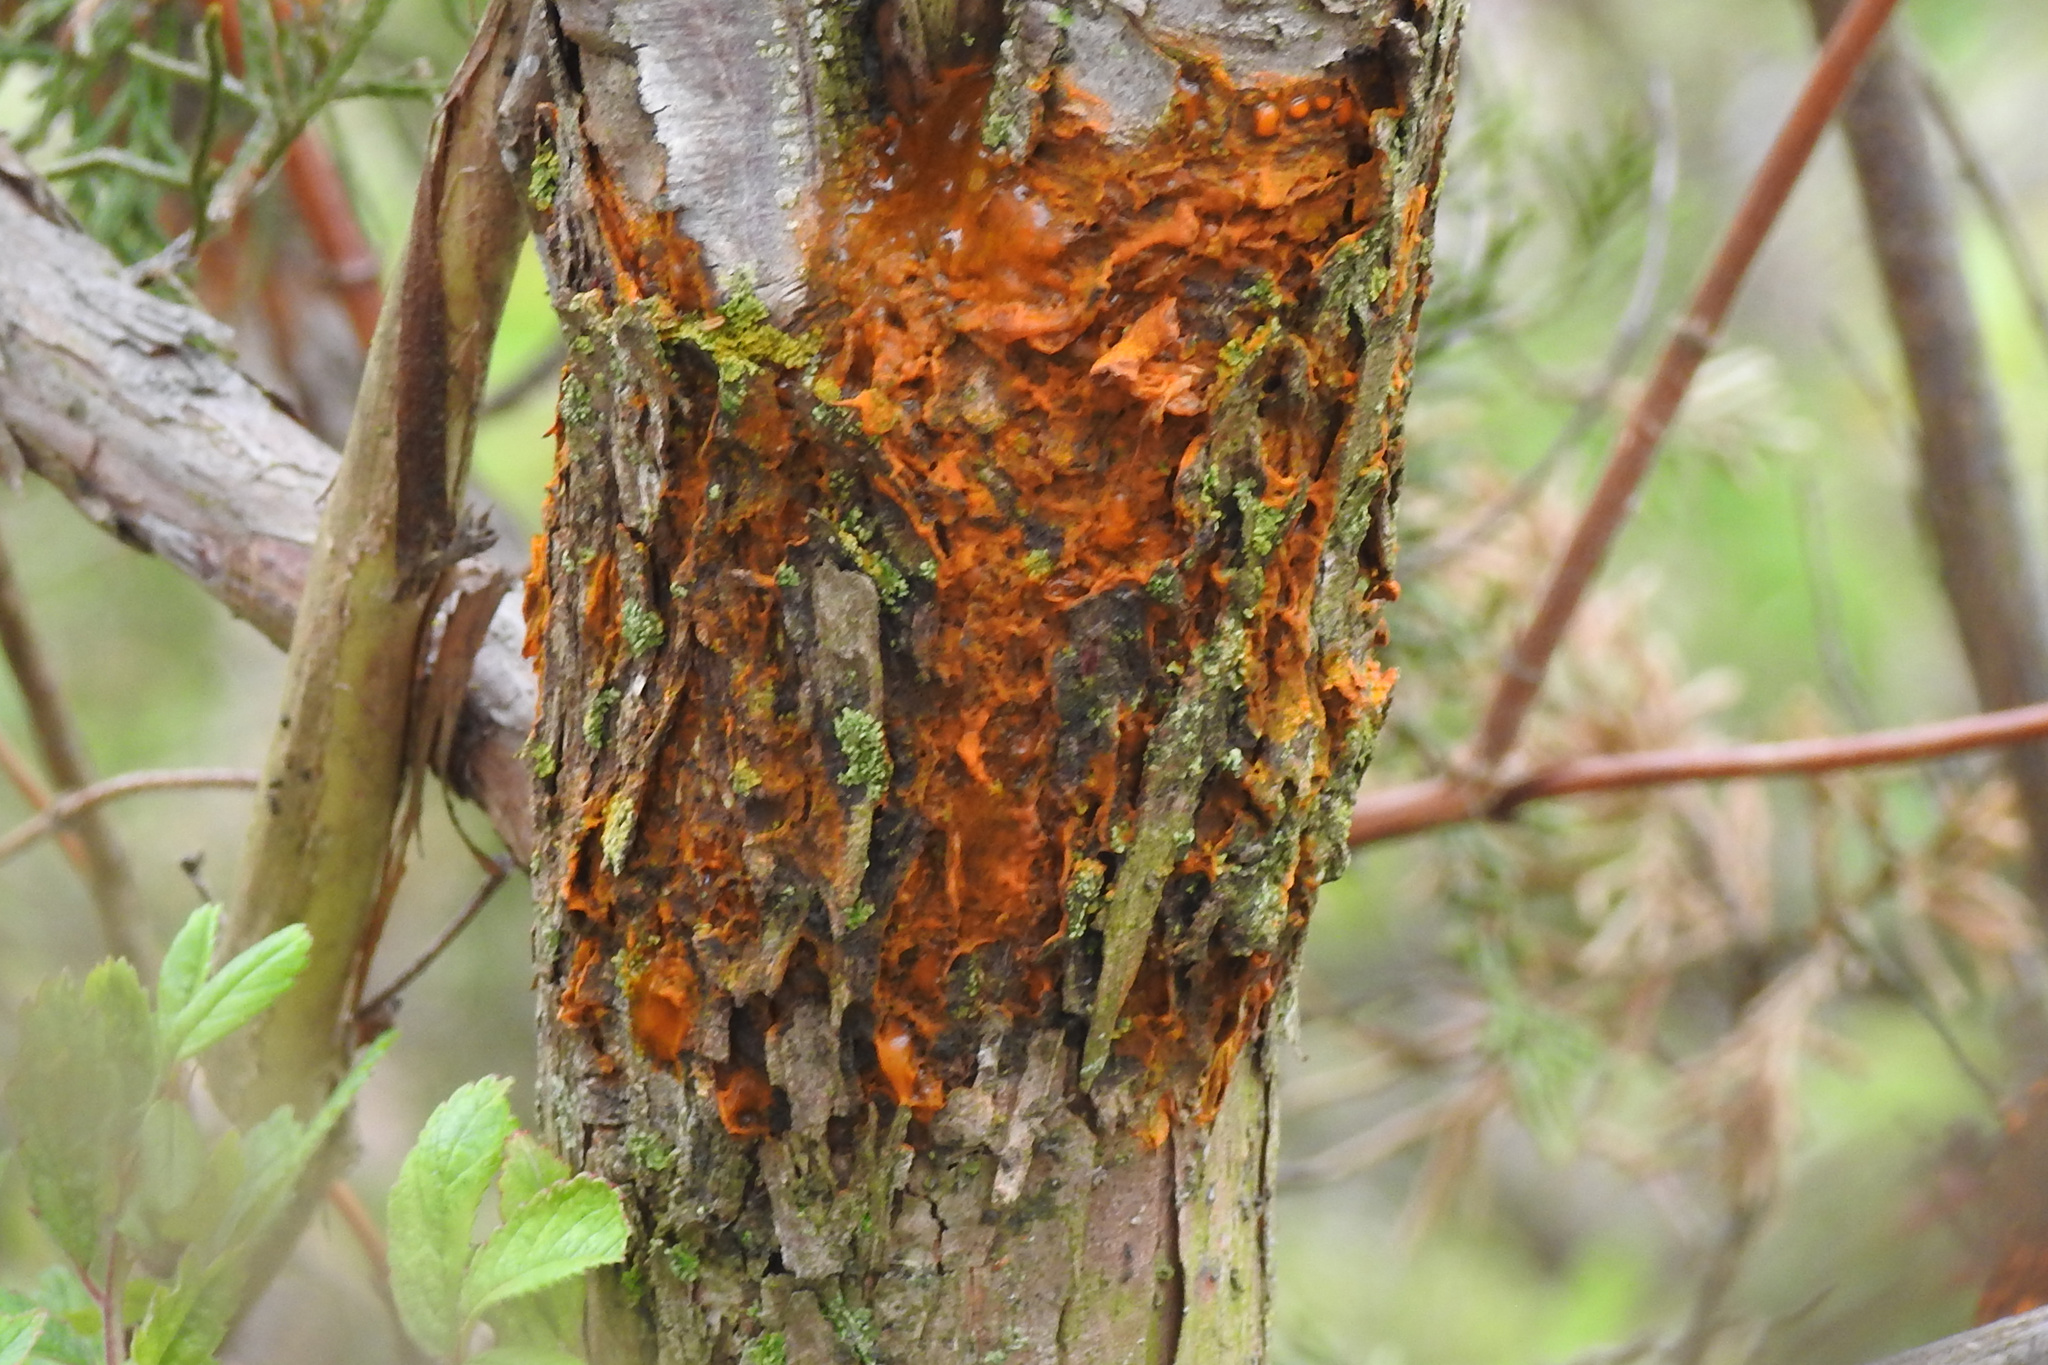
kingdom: Fungi
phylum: Basidiomycota
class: Pucciniomycetes
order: Pucciniales
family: Gymnosporangiaceae
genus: Gymnosporangium
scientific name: Gymnosporangium clavipes
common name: Quince rust
